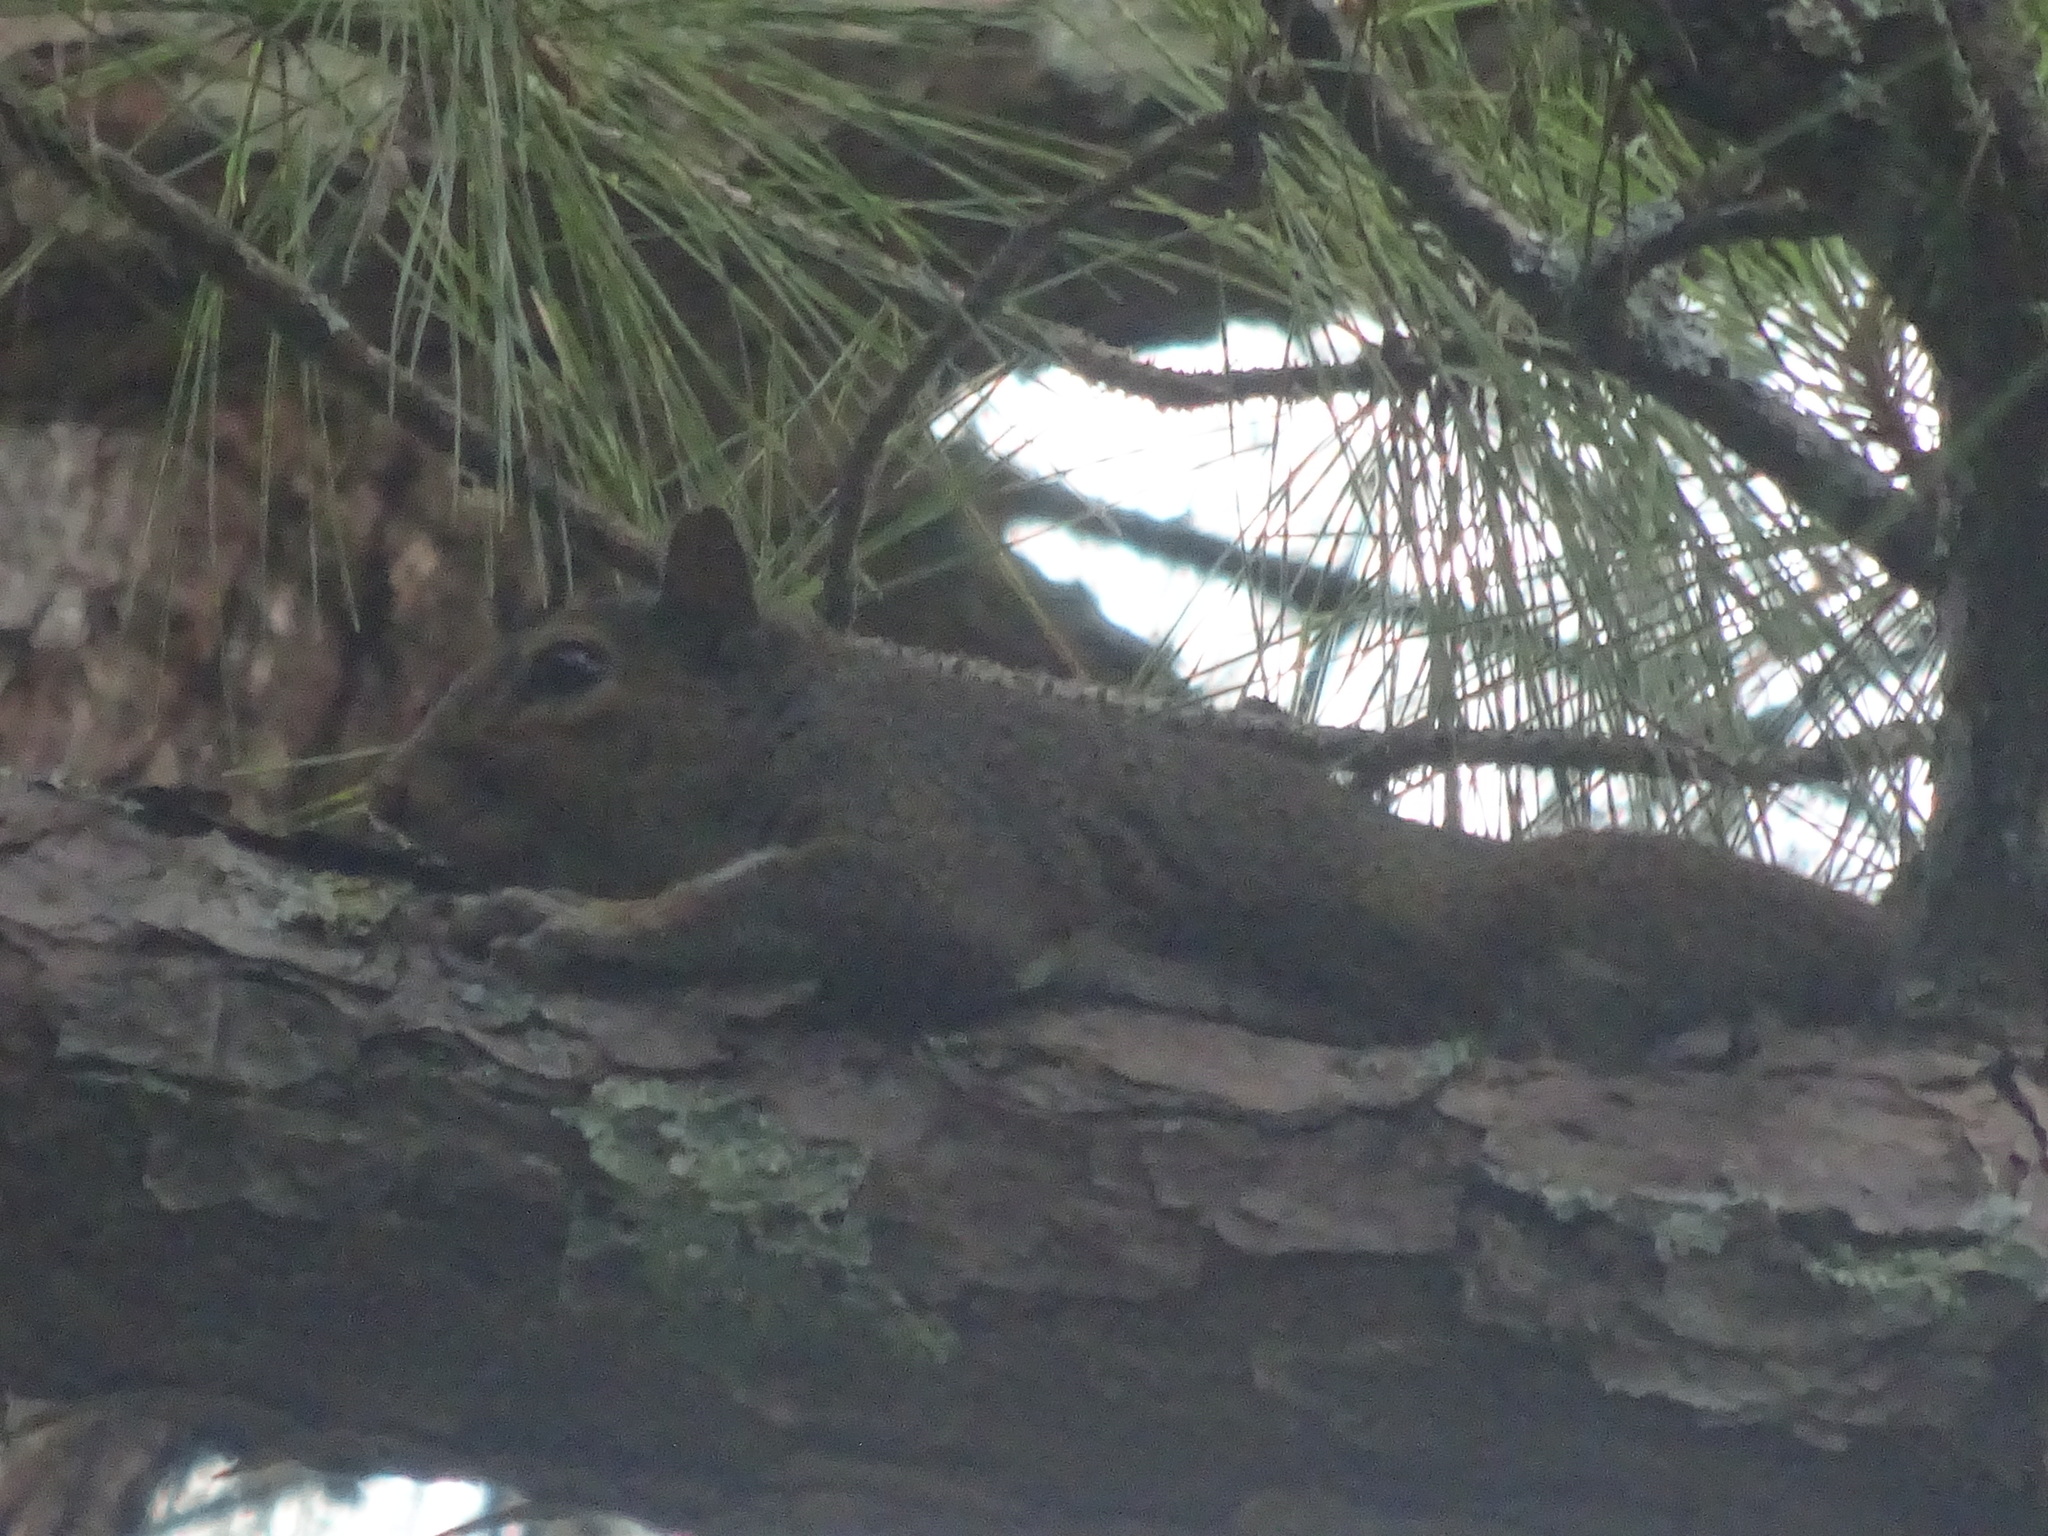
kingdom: Animalia
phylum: Chordata
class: Mammalia
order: Rodentia
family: Sciuridae
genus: Sciurus
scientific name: Sciurus carolinensis
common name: Eastern gray squirrel
